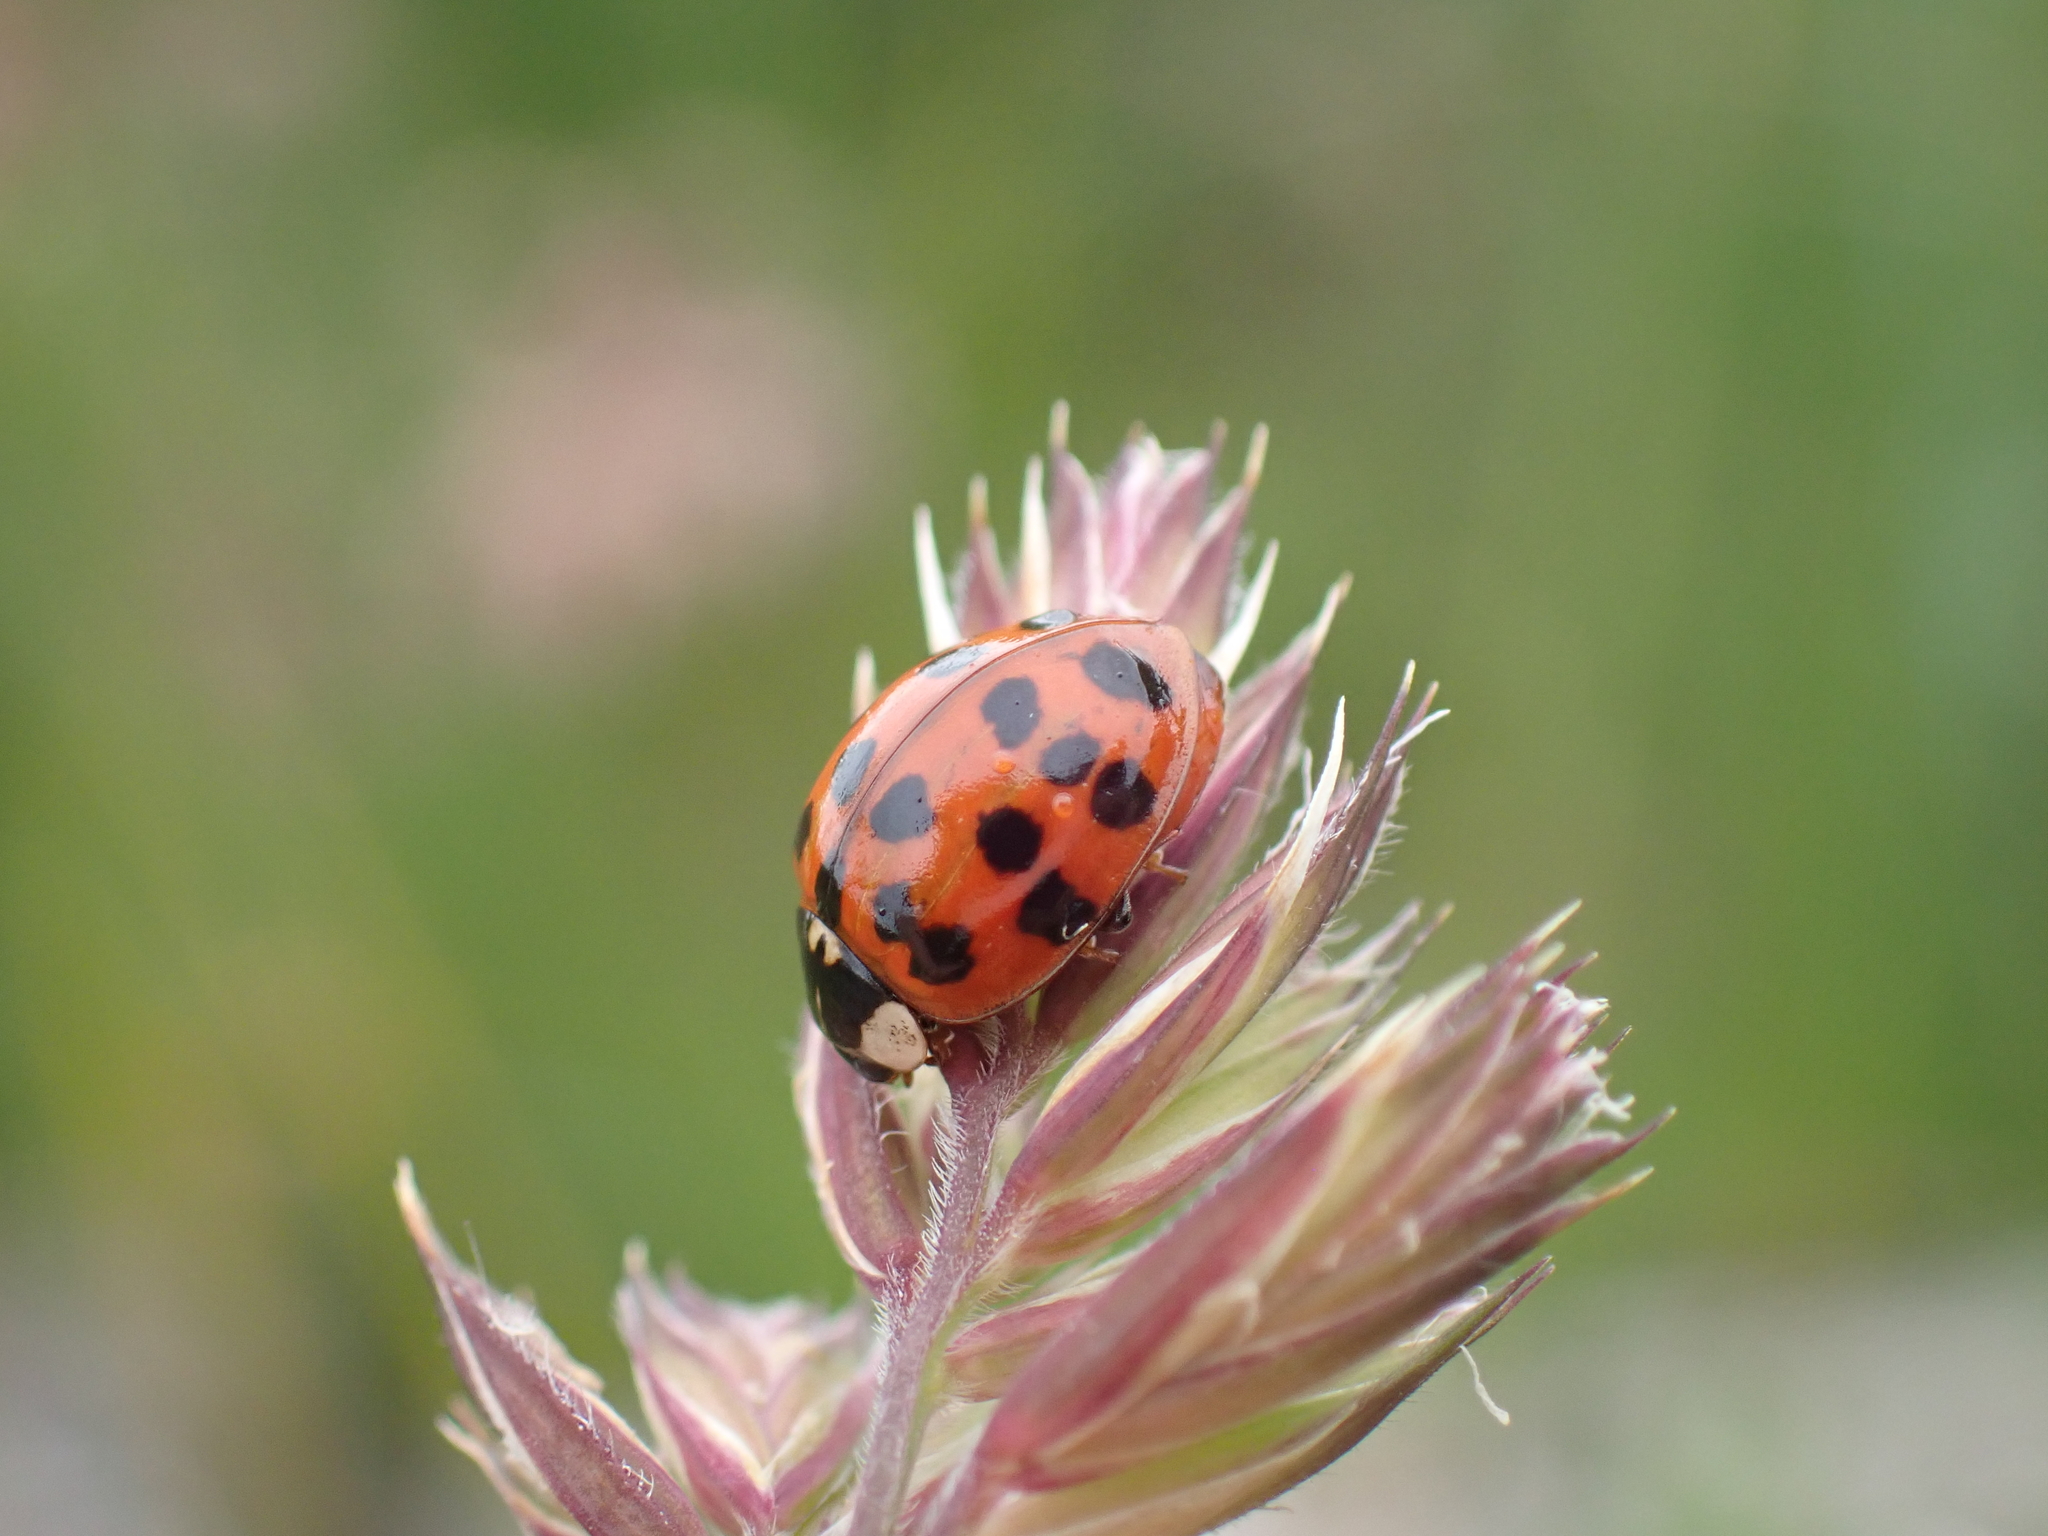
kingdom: Animalia
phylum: Arthropoda
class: Insecta
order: Coleoptera
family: Coccinellidae
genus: Harmonia
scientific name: Harmonia axyridis
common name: Harlequin ladybird
